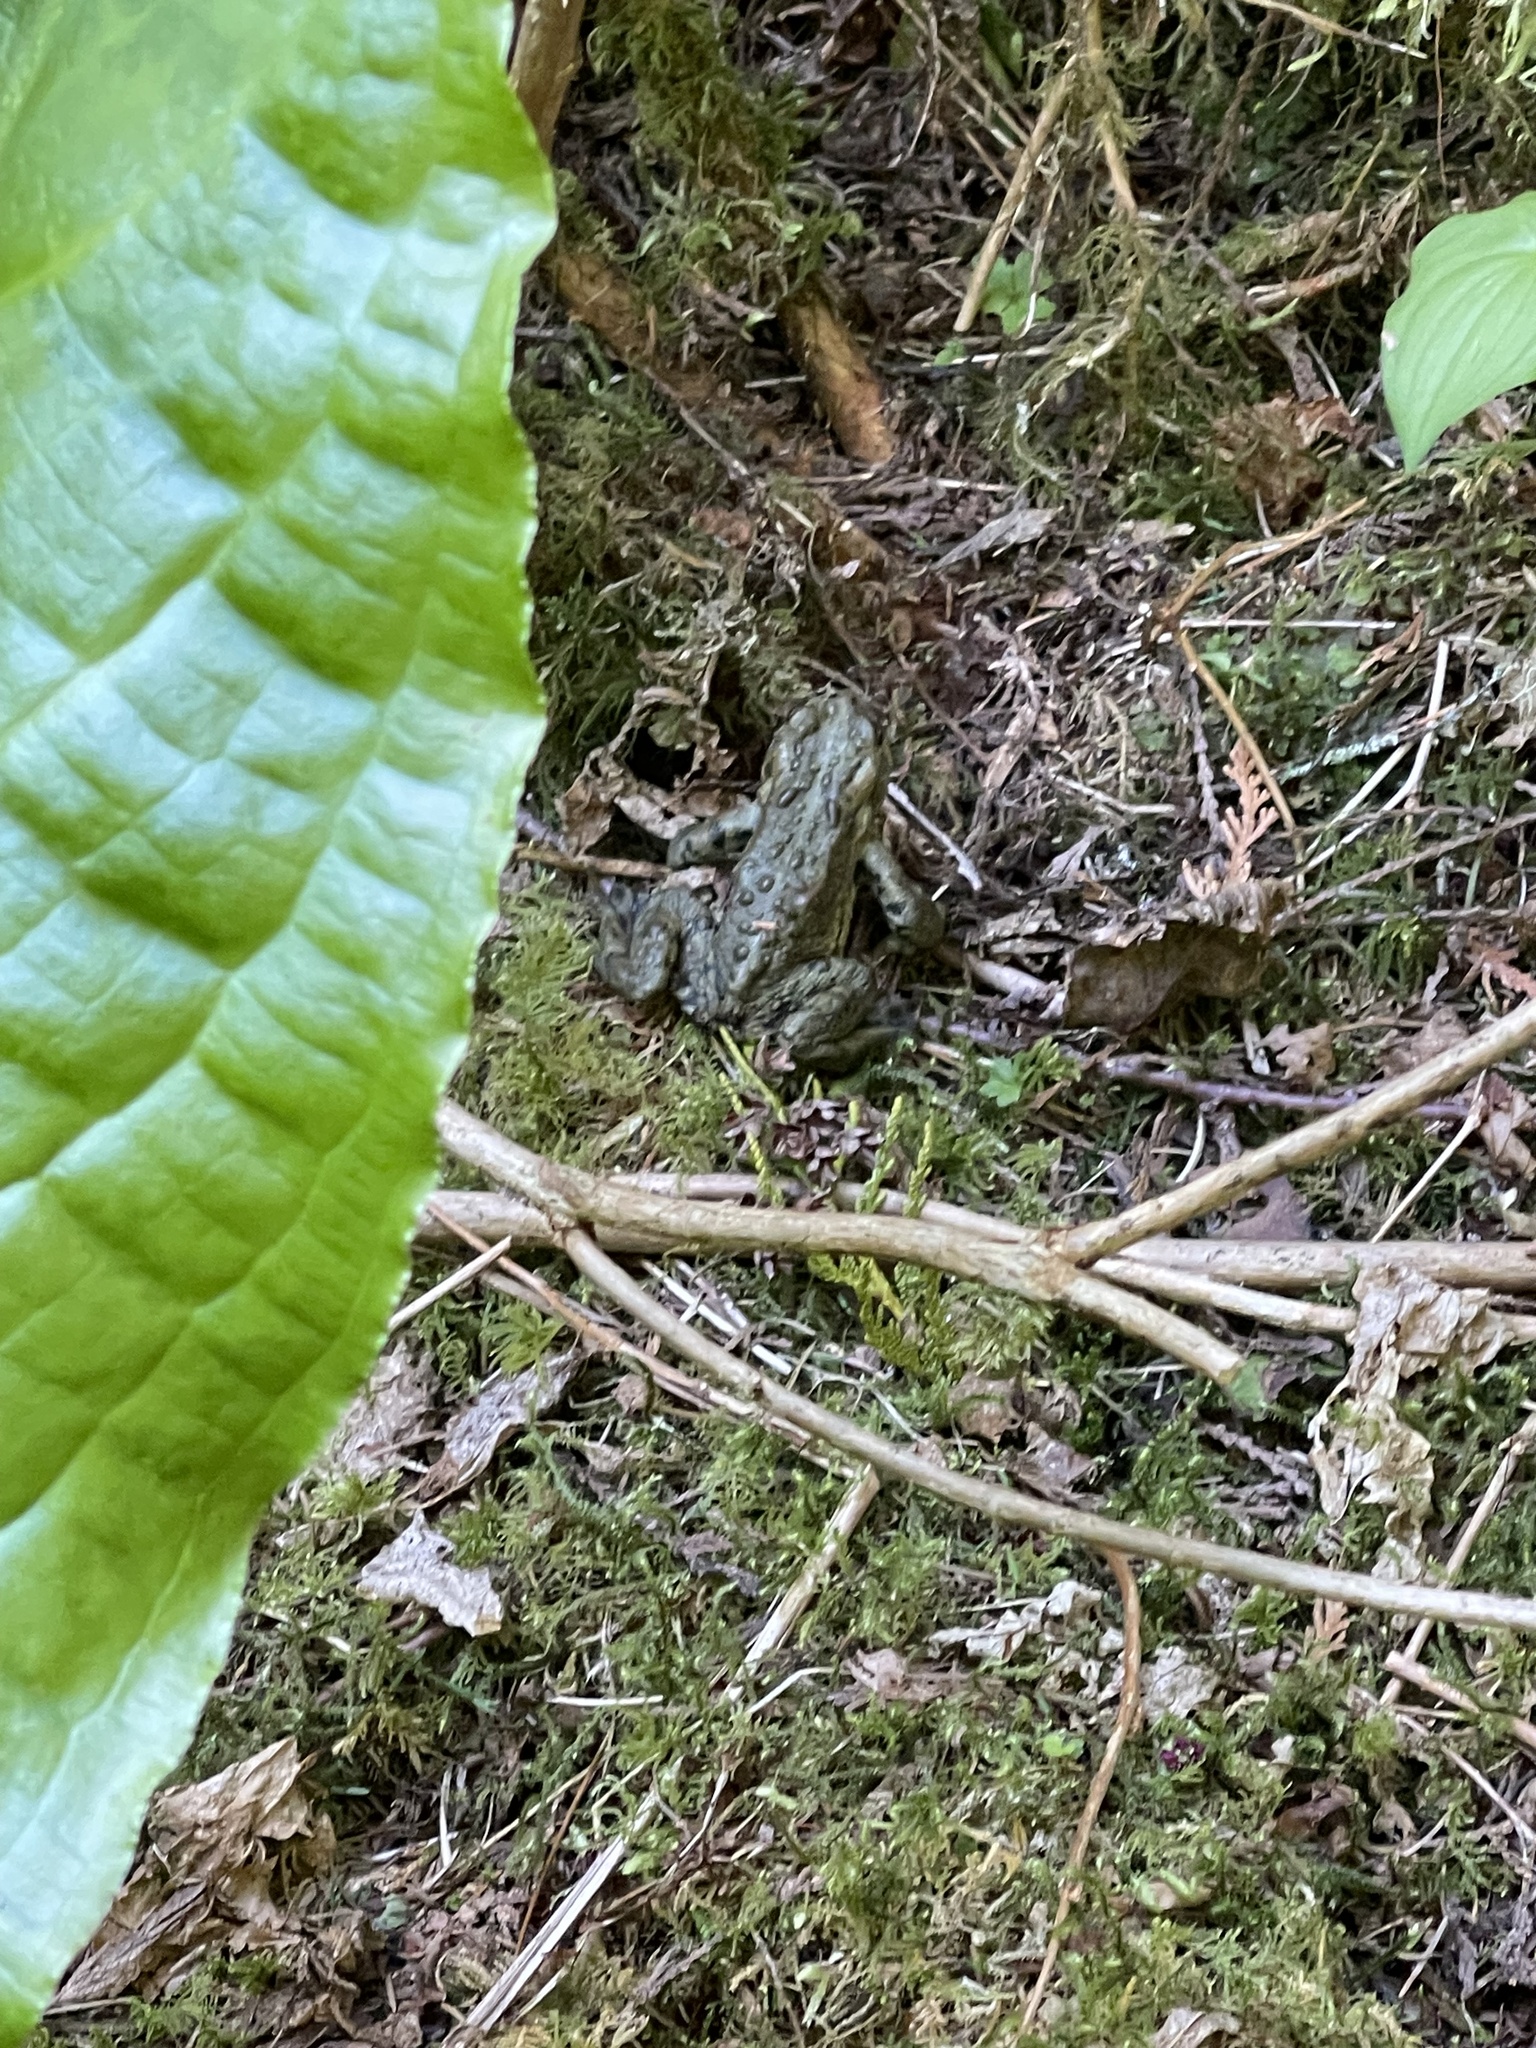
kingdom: Animalia
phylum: Chordata
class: Amphibia
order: Anura
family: Bufonidae
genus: Anaxyrus
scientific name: Anaxyrus boreas
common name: Western toad
